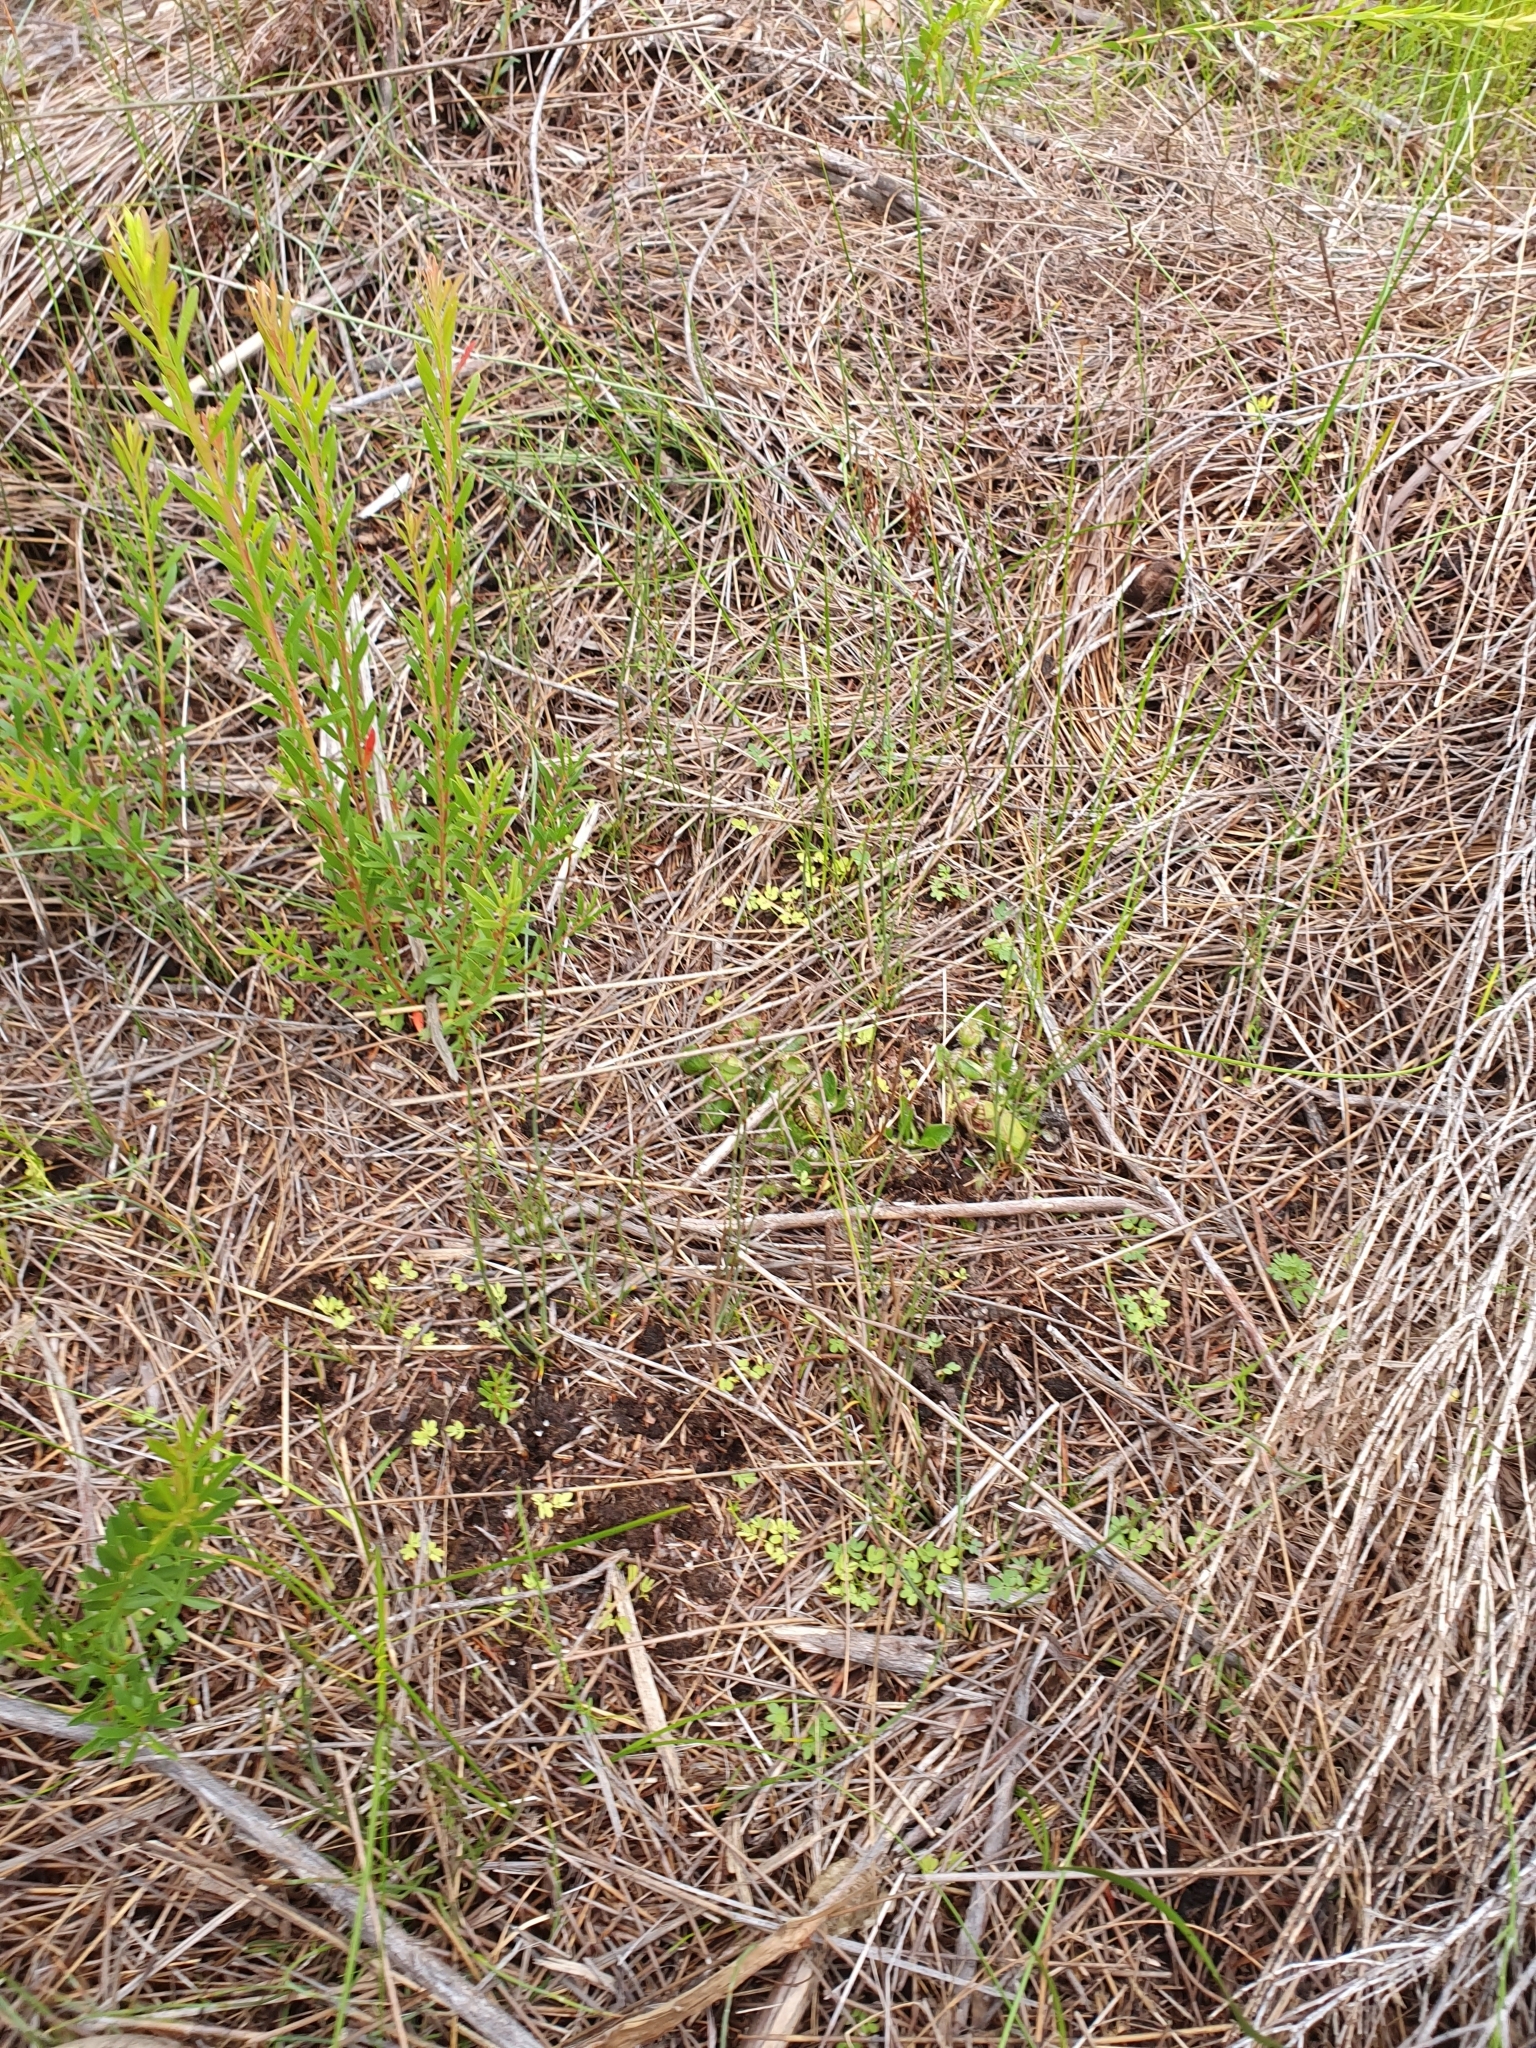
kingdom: Plantae
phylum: Tracheophyta
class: Magnoliopsida
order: Oxalidales
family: Cephalotaceae
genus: Cephalotus
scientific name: Cephalotus follicularis
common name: Australian pitcher plant
